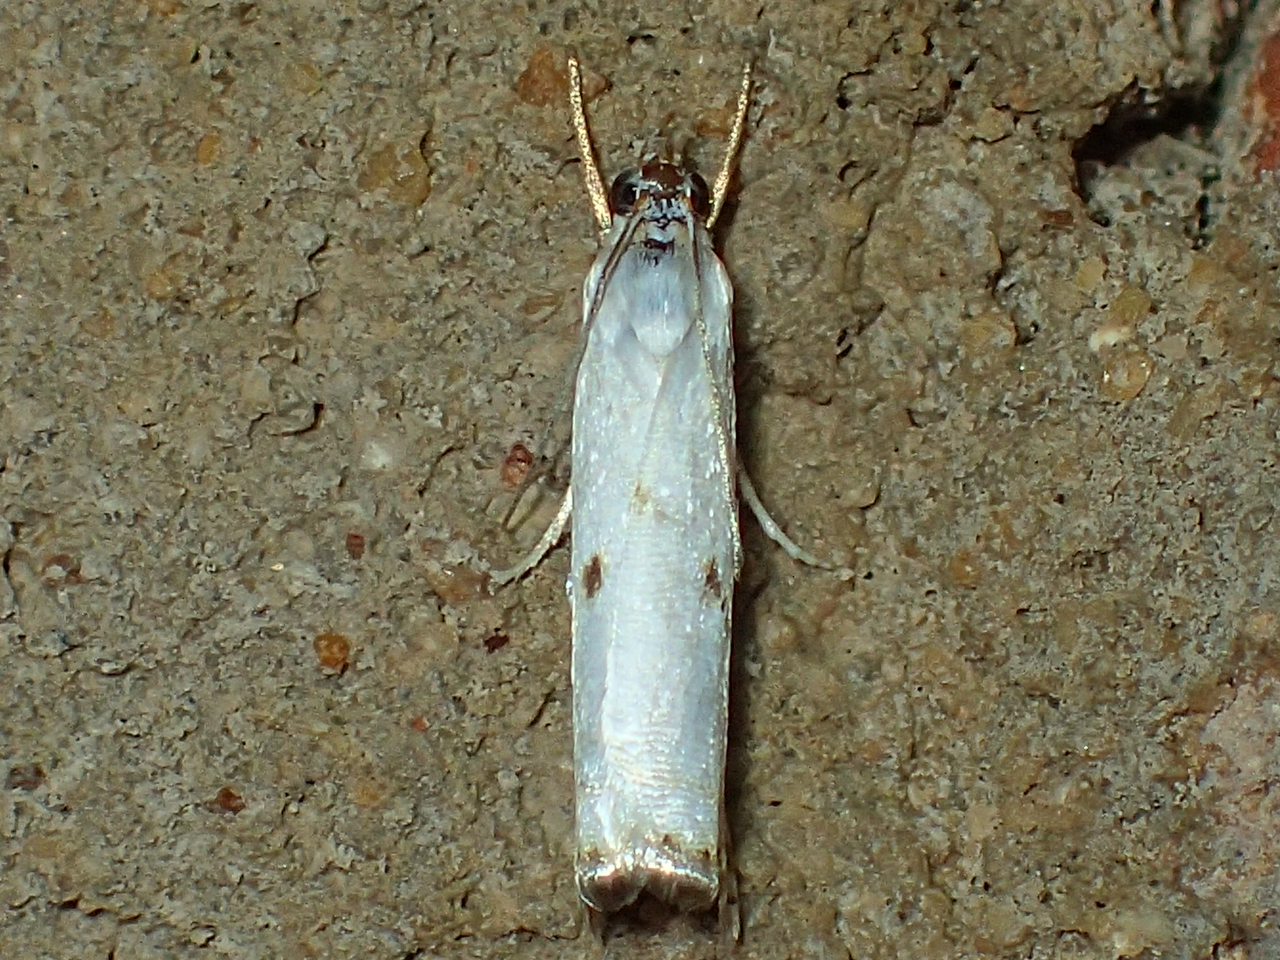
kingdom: Animalia
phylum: Arthropoda
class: Insecta
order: Lepidoptera
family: Crambidae
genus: Microcrambus
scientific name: Microcrambus biguttellus
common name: Gold-stripe grass-veneer moth
